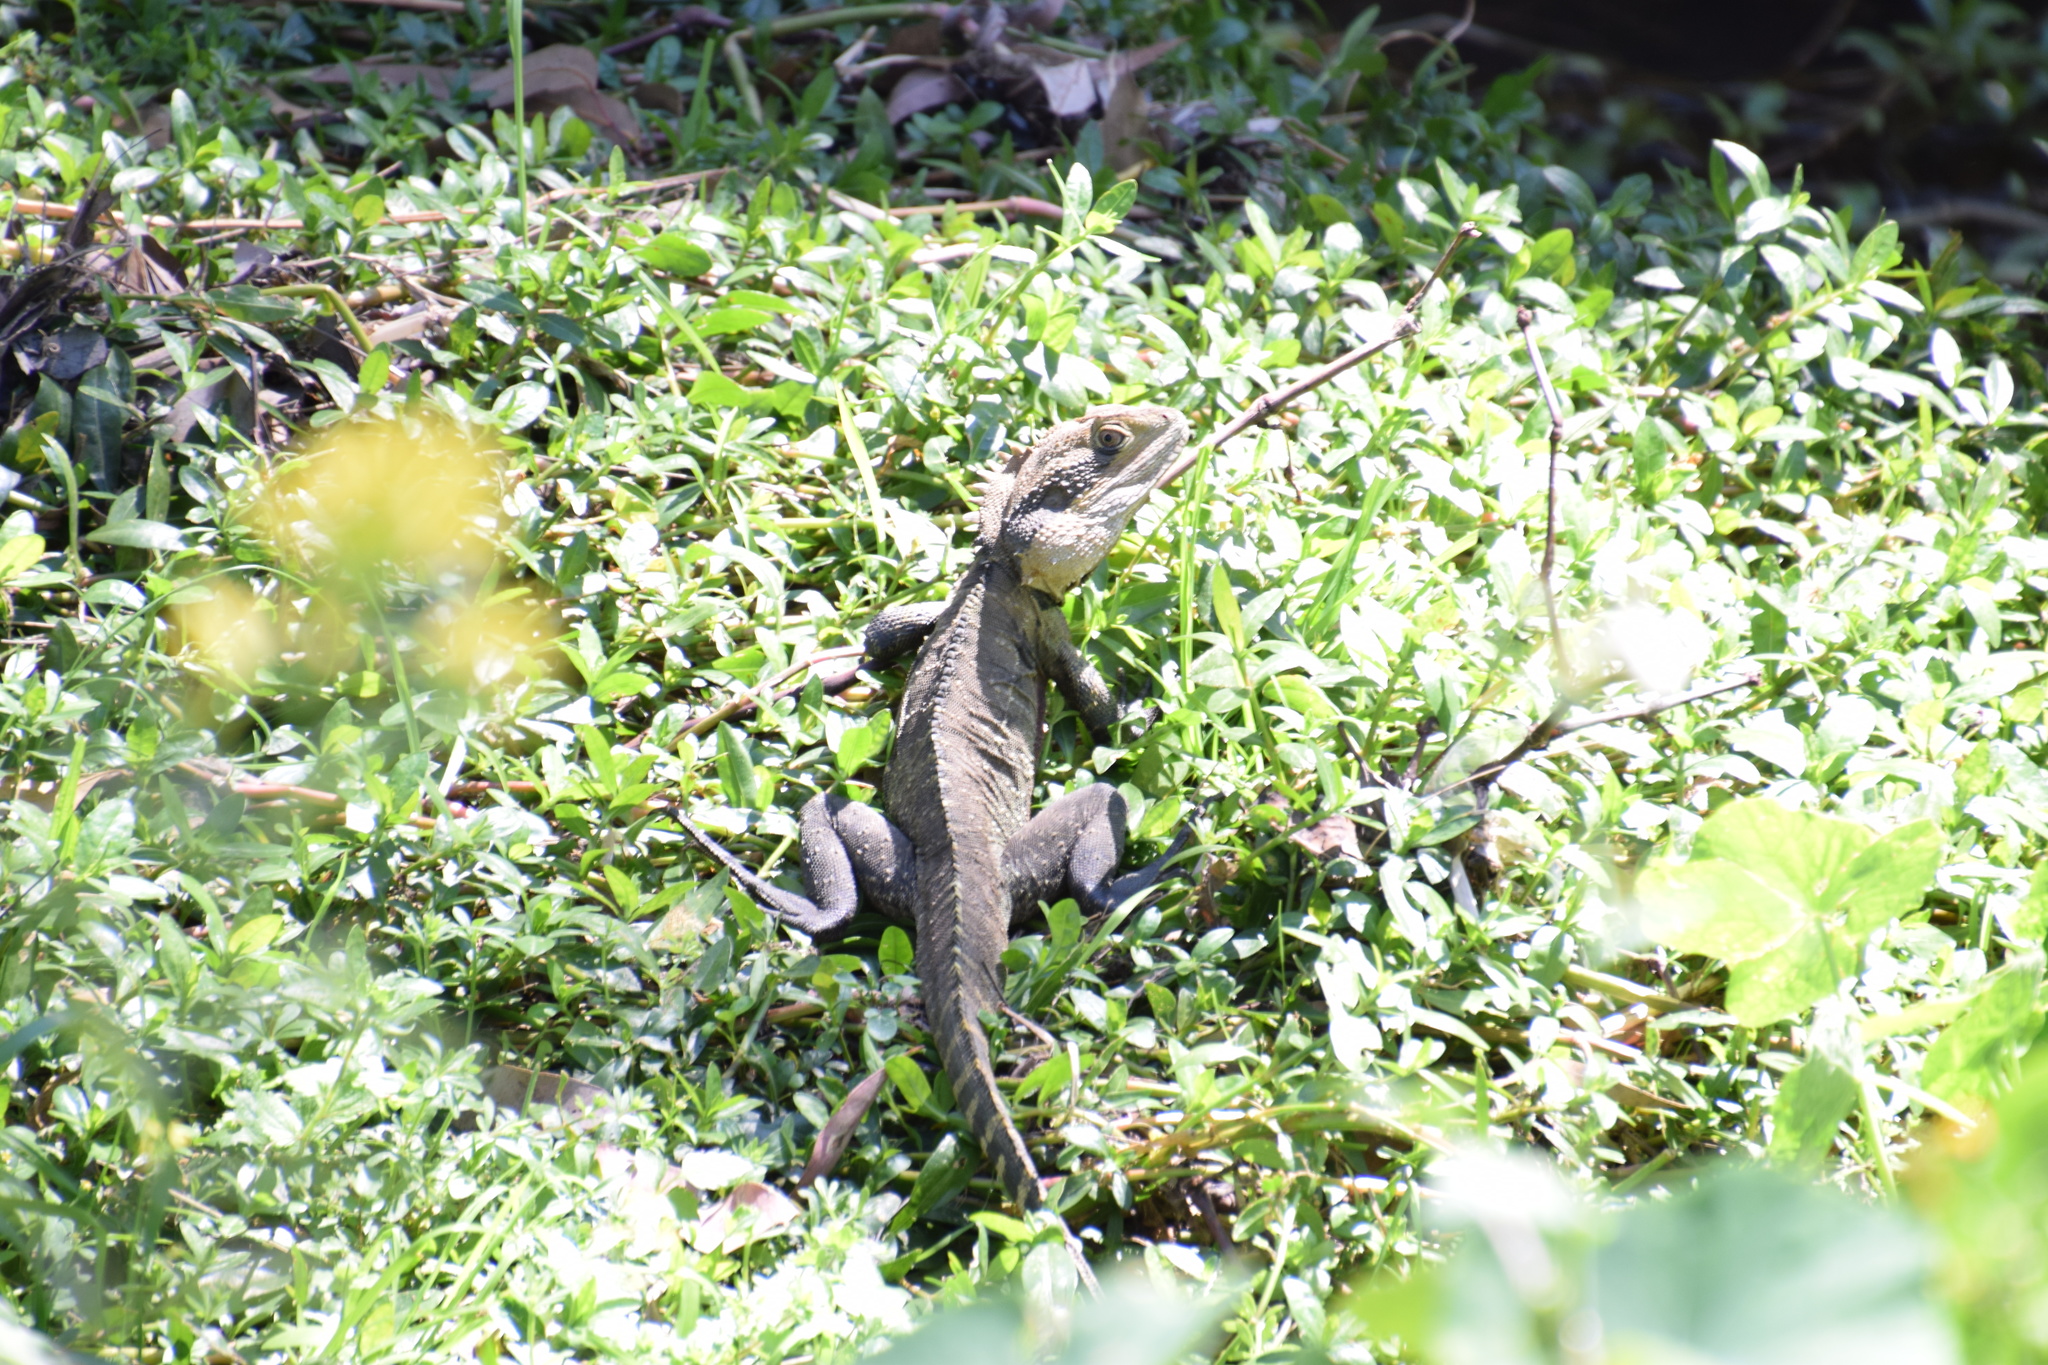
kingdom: Animalia
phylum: Chordata
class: Squamata
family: Agamidae
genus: Intellagama
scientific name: Intellagama lesueurii
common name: Eastern water dragon
